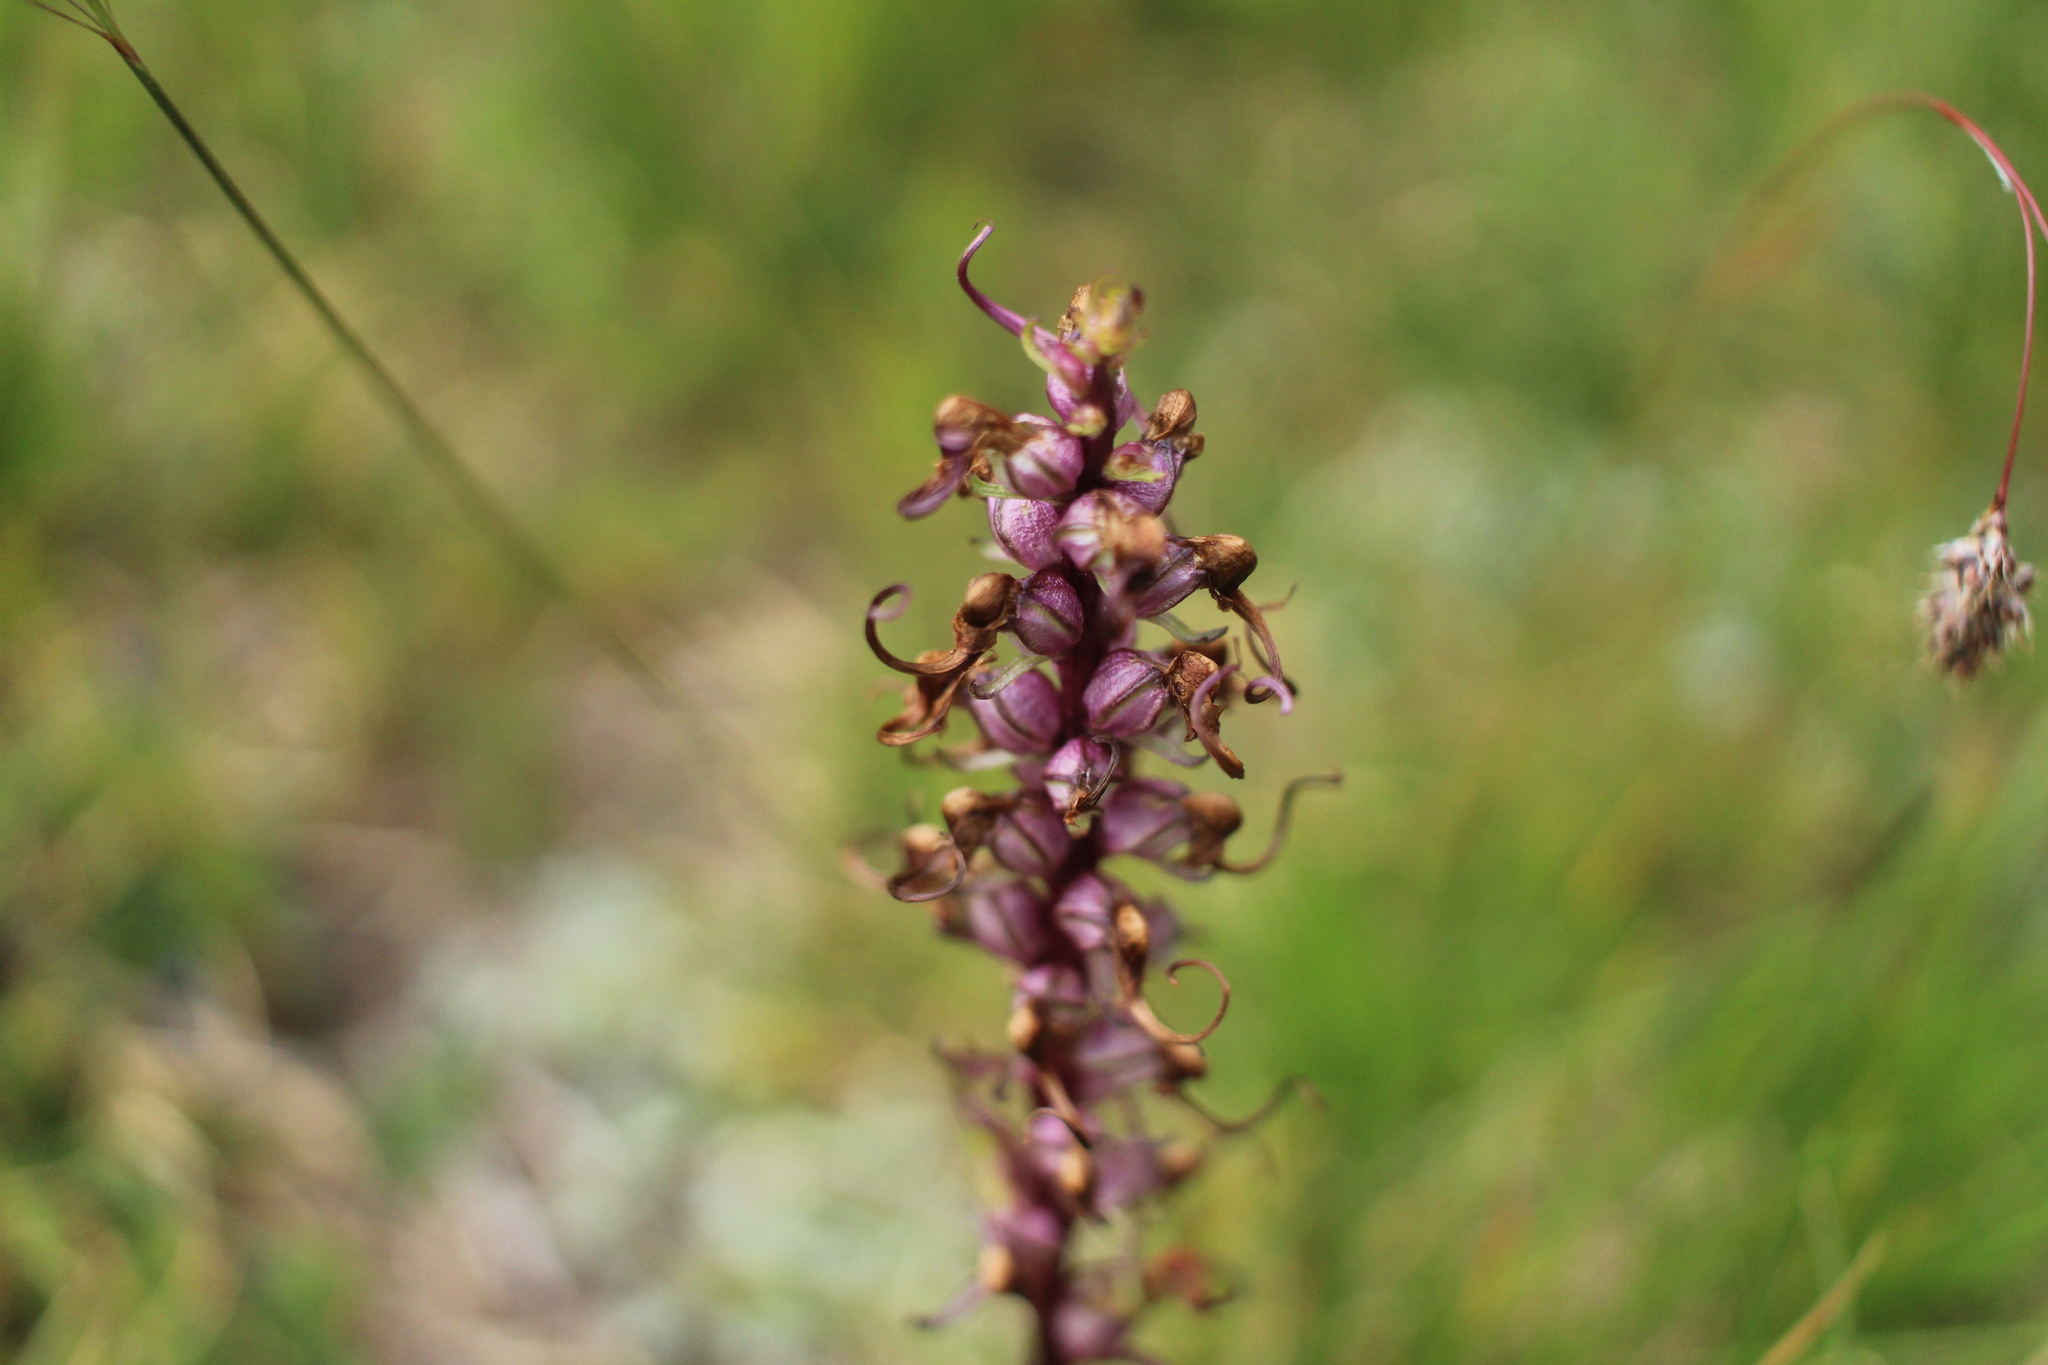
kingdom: Plantae
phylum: Tracheophyta
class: Magnoliopsida
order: Lamiales
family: Orobanchaceae
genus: Pedicularis
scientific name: Pedicularis groenlandica
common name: Elephant's-head
